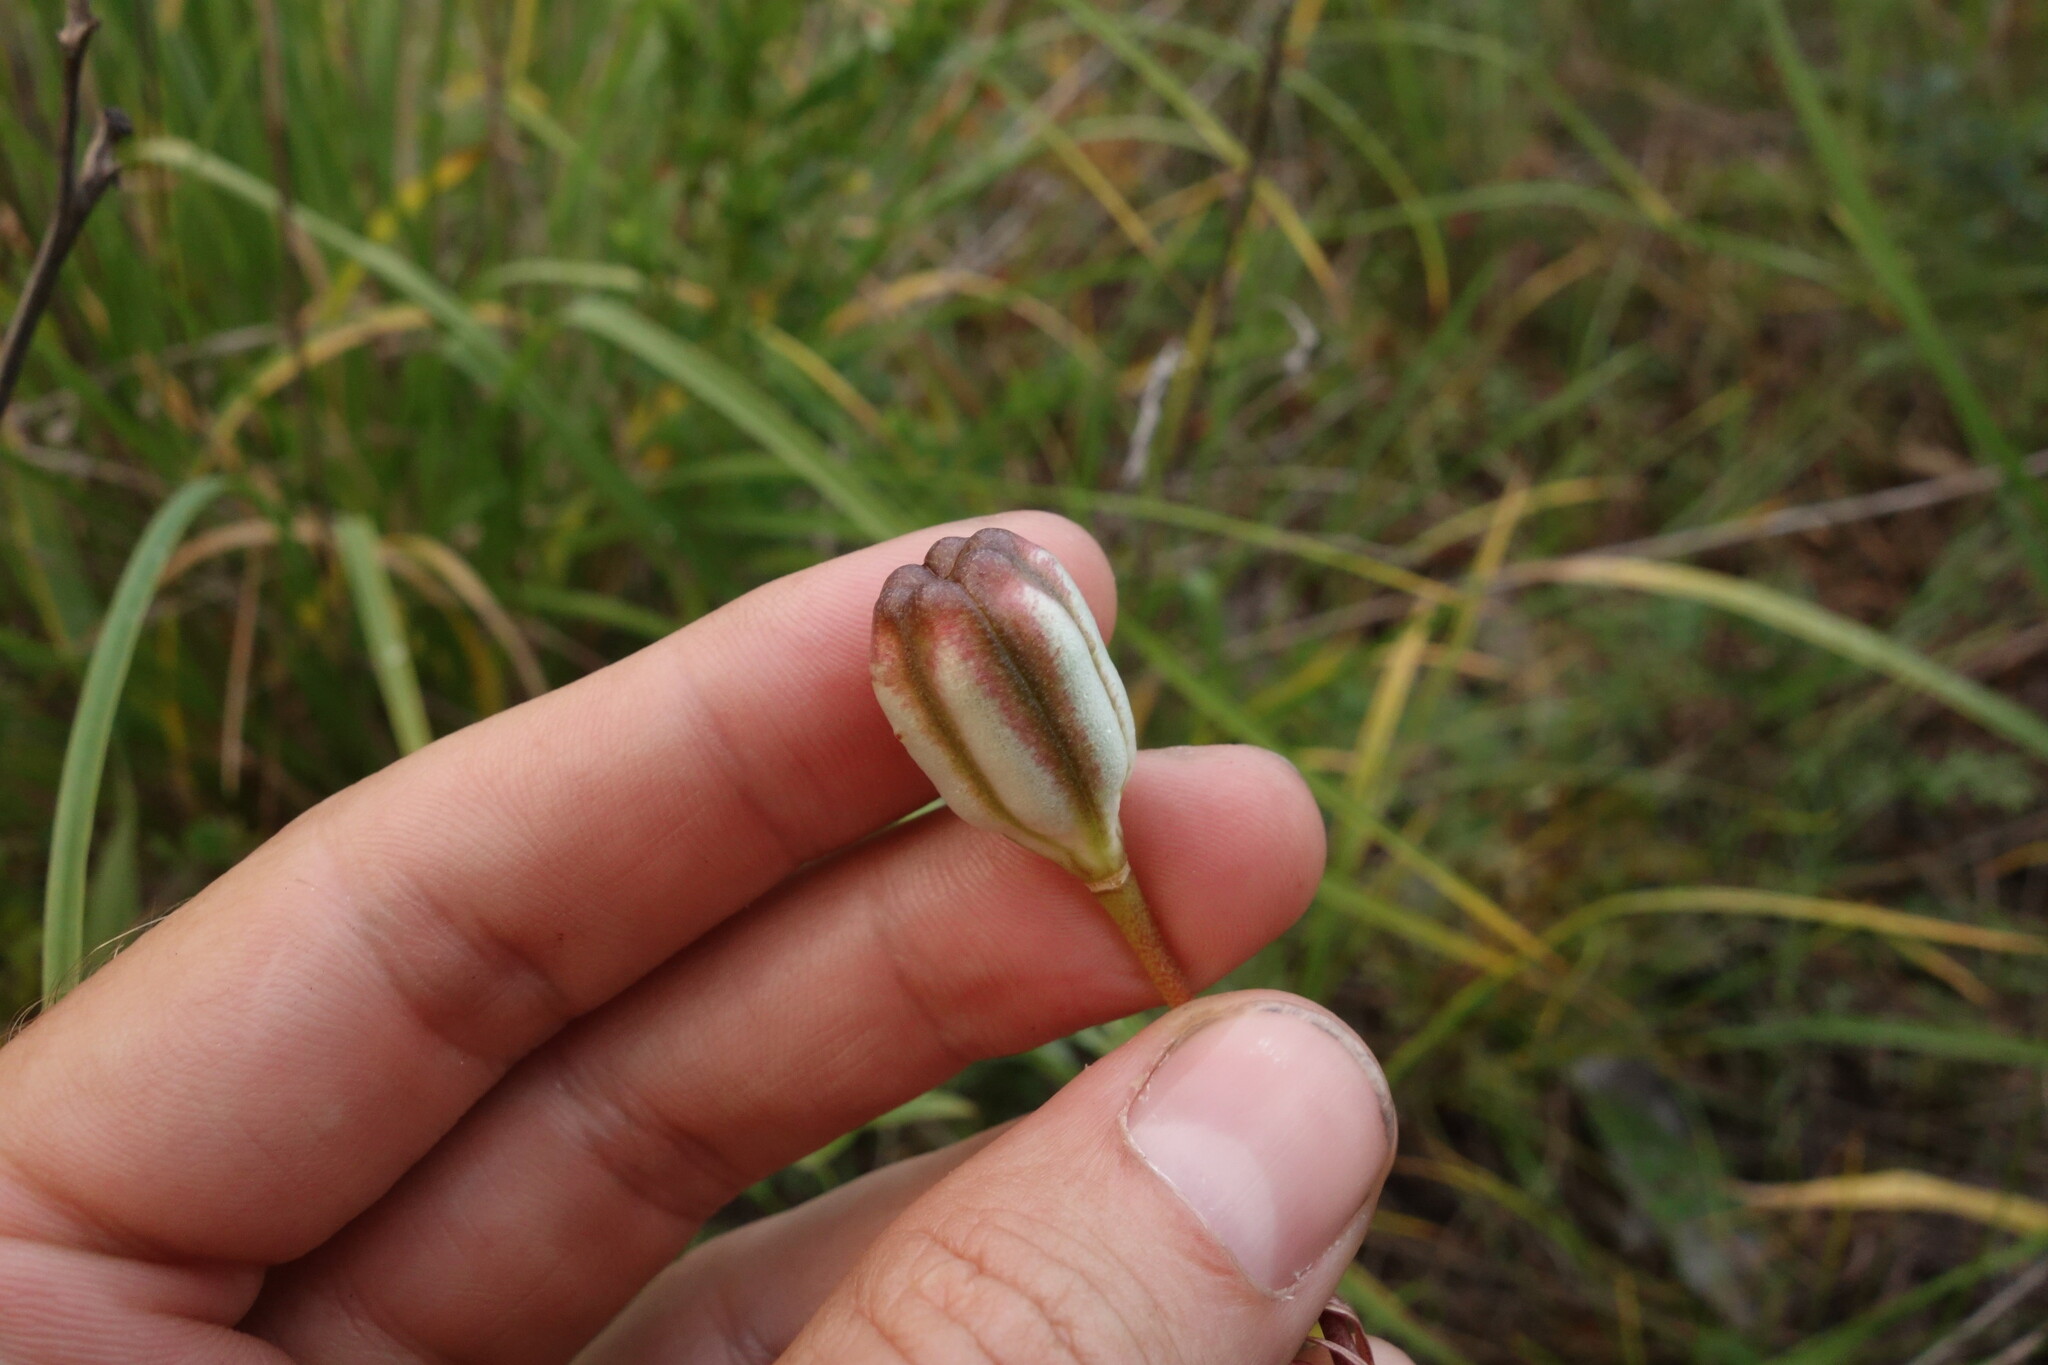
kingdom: Plantae
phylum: Tracheophyta
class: Liliopsida
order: Liliales
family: Liliaceae
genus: Lilium
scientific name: Lilium pumilum
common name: Coral lily
